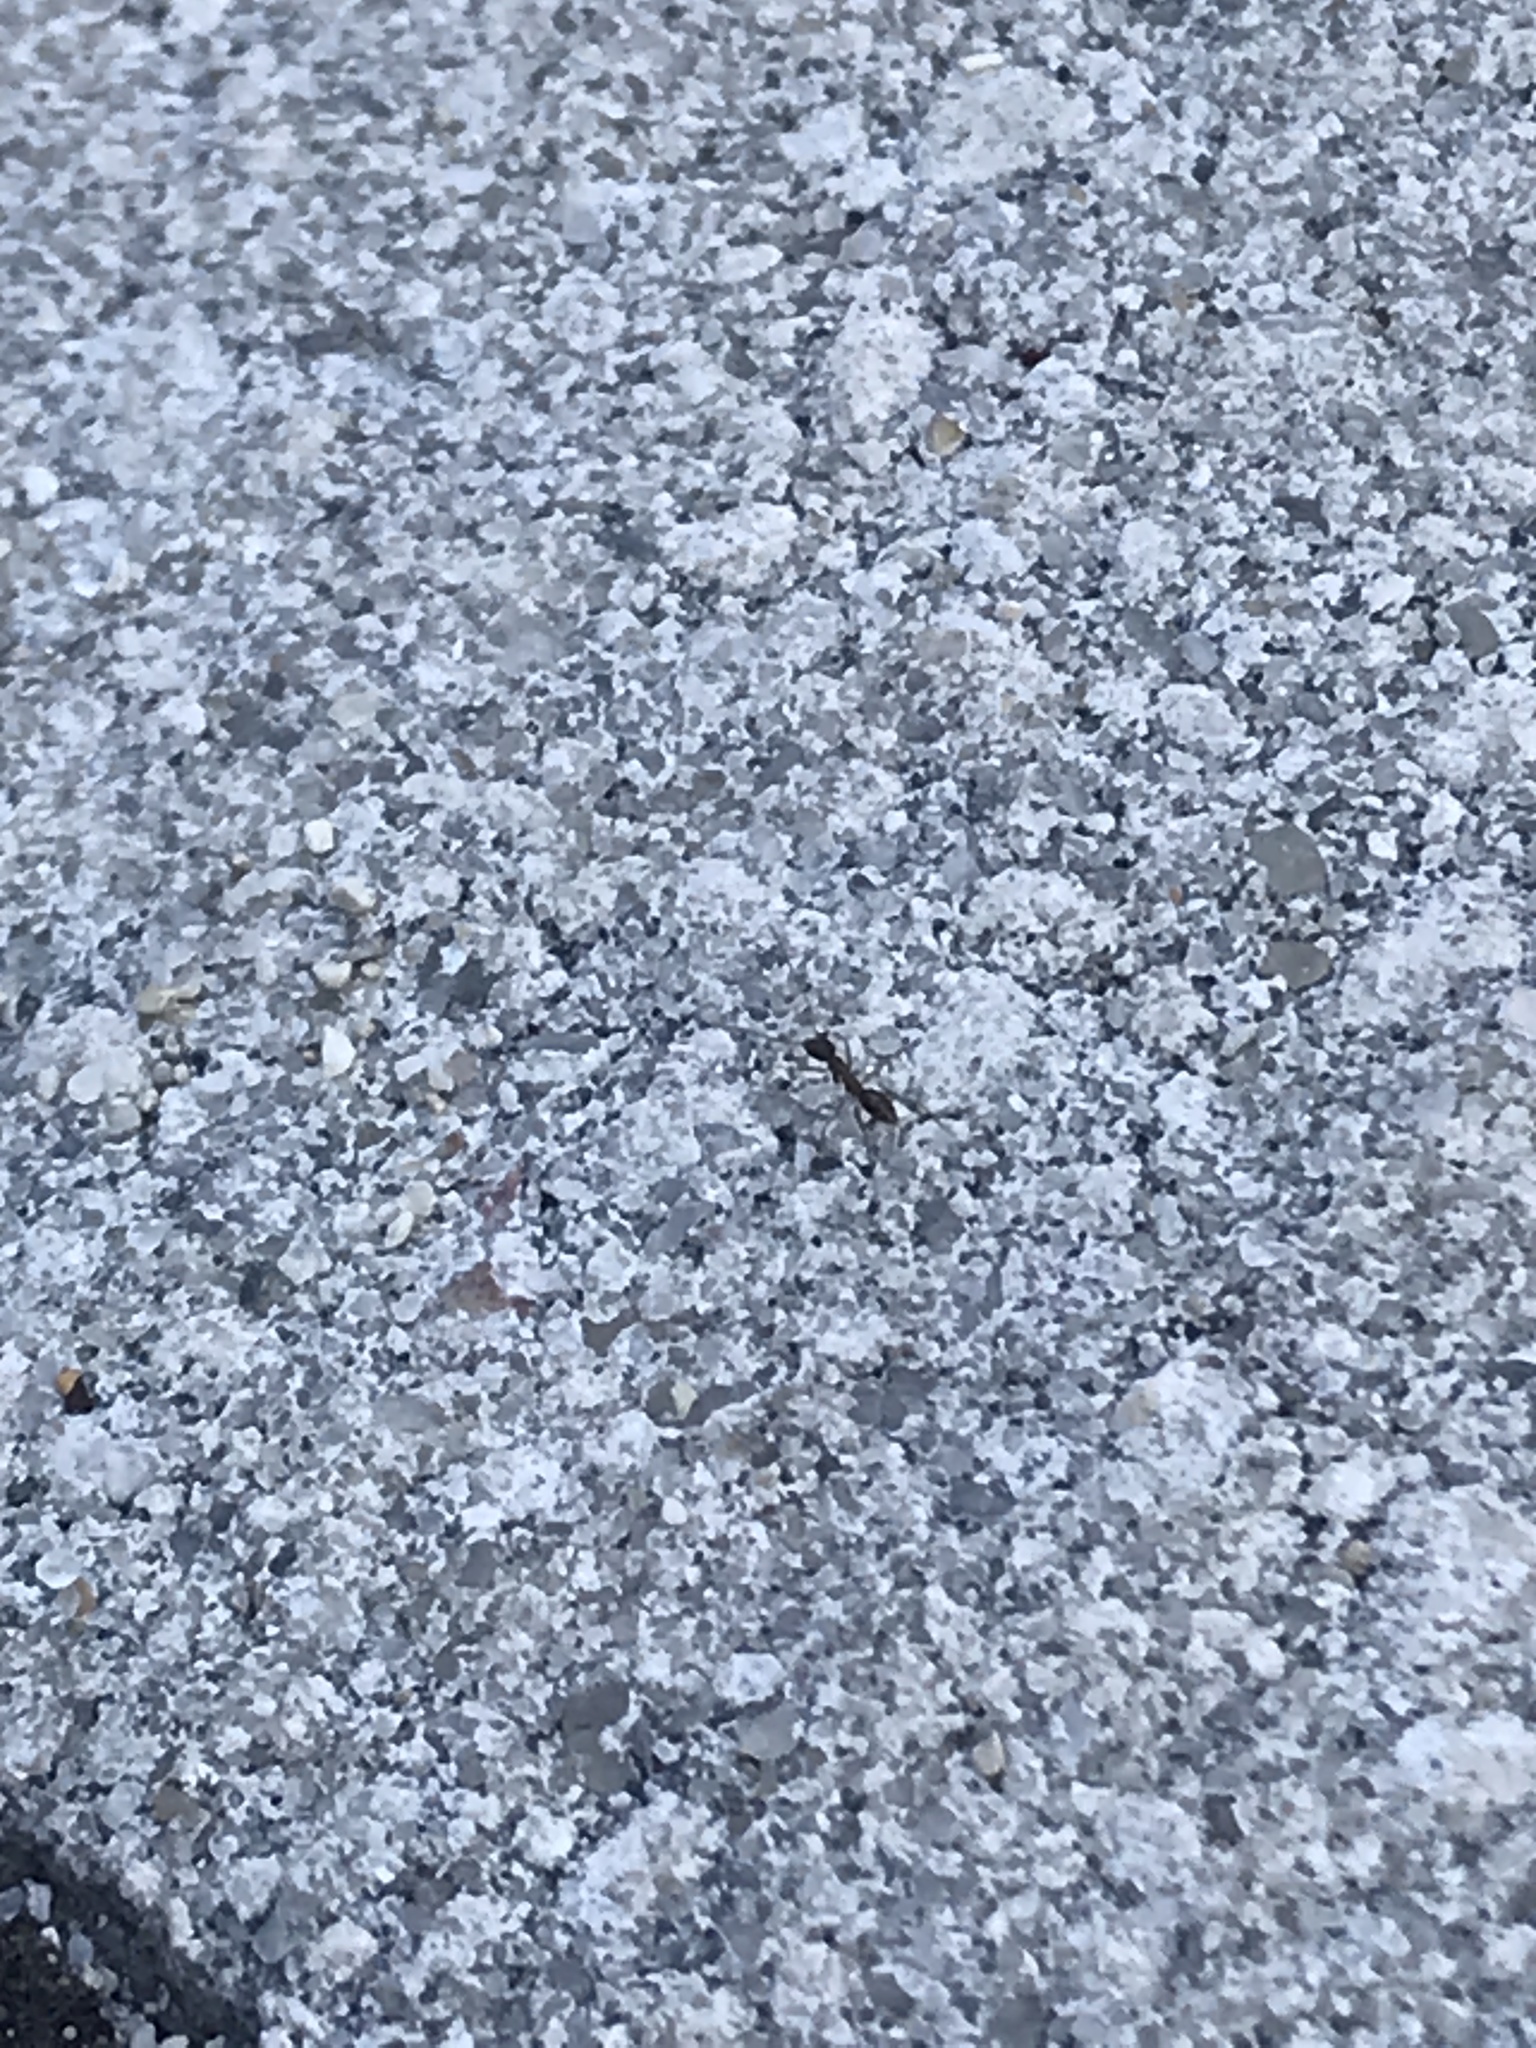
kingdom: Animalia
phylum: Arthropoda
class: Insecta
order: Hymenoptera
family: Formicidae
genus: Paratrechina
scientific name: Paratrechina longicornis
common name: Longhorned crazy ant
